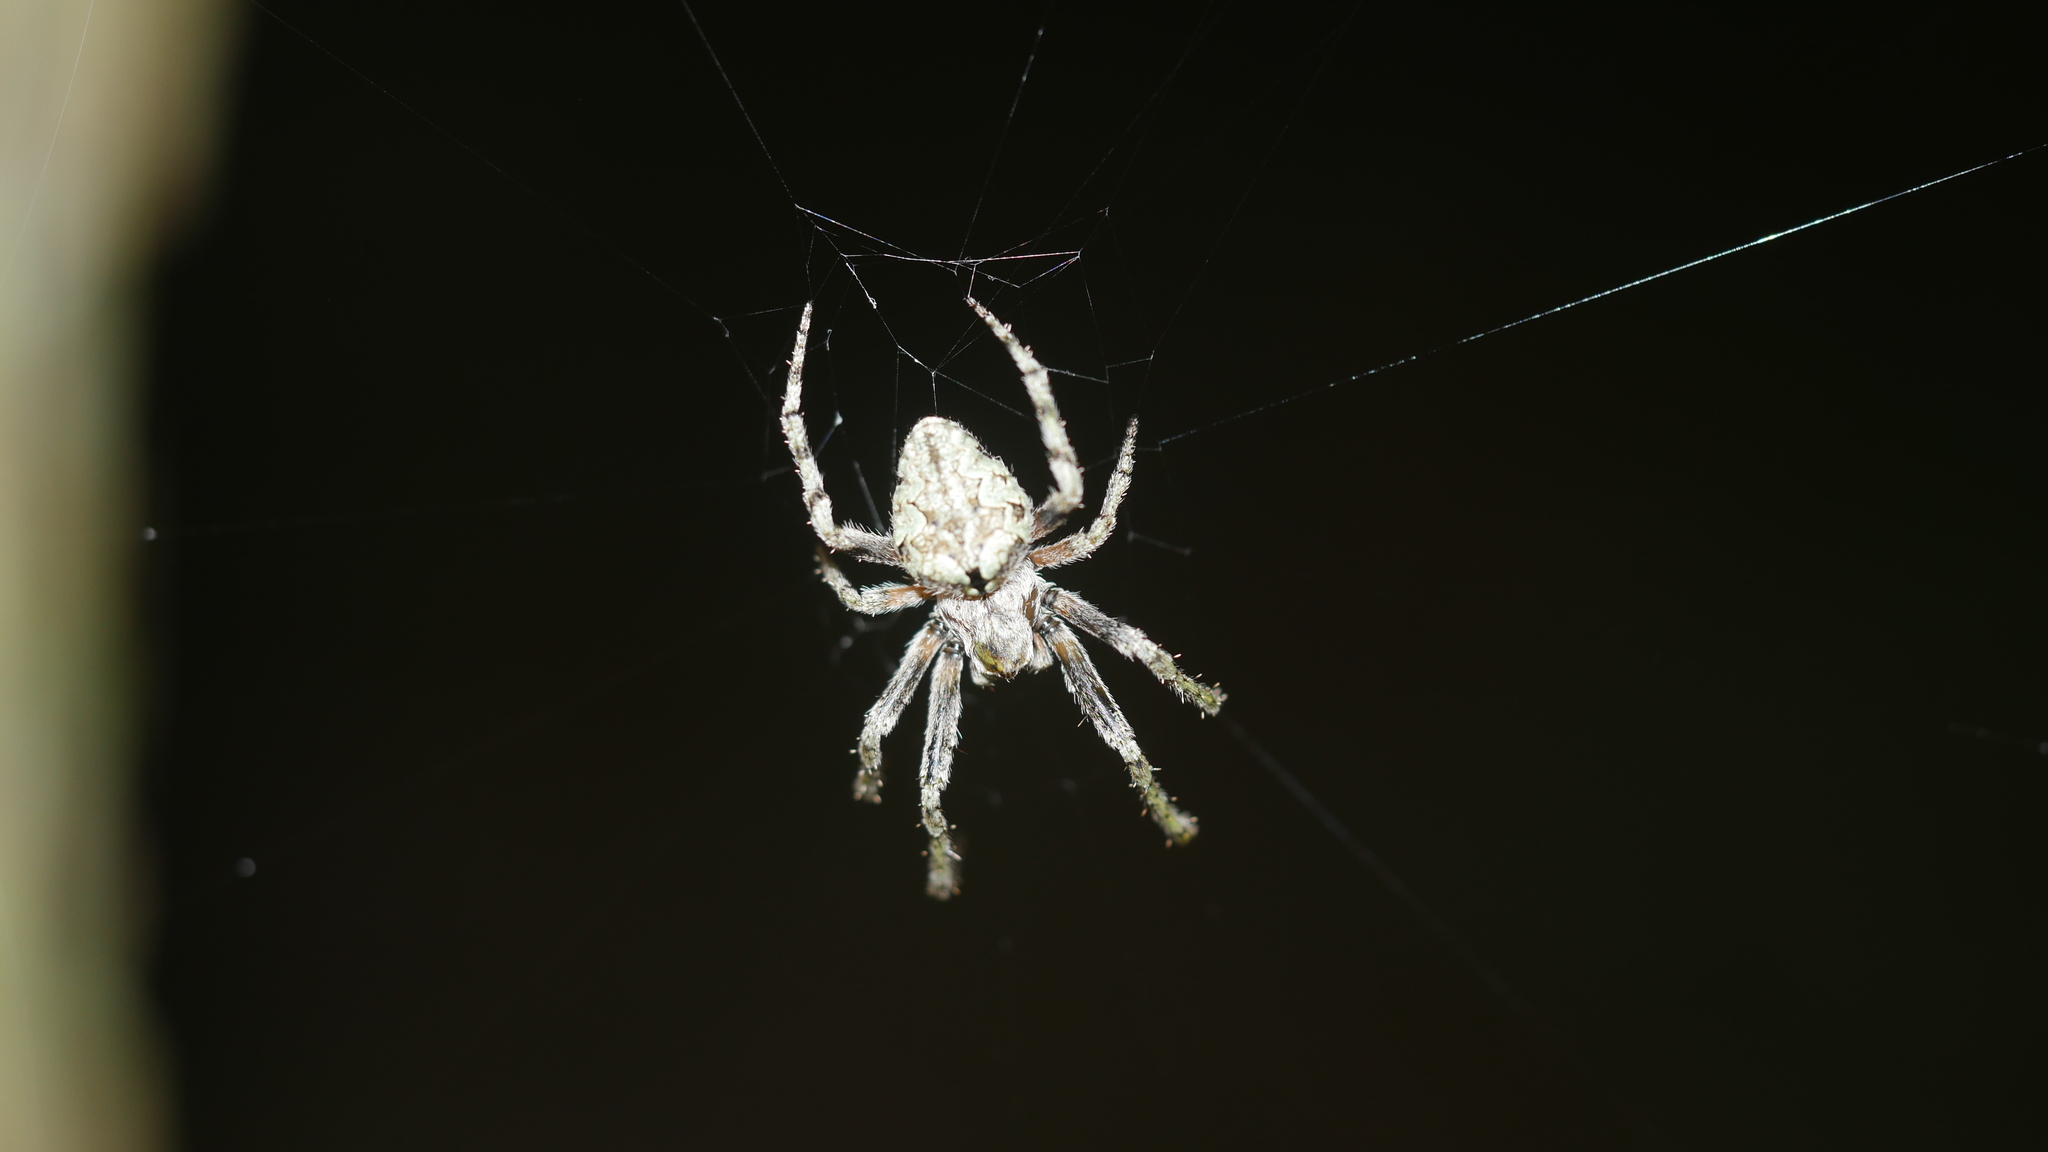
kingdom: Animalia
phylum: Arthropoda
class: Arachnida
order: Araneae
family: Araneidae
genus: Eustala
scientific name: Eustala
